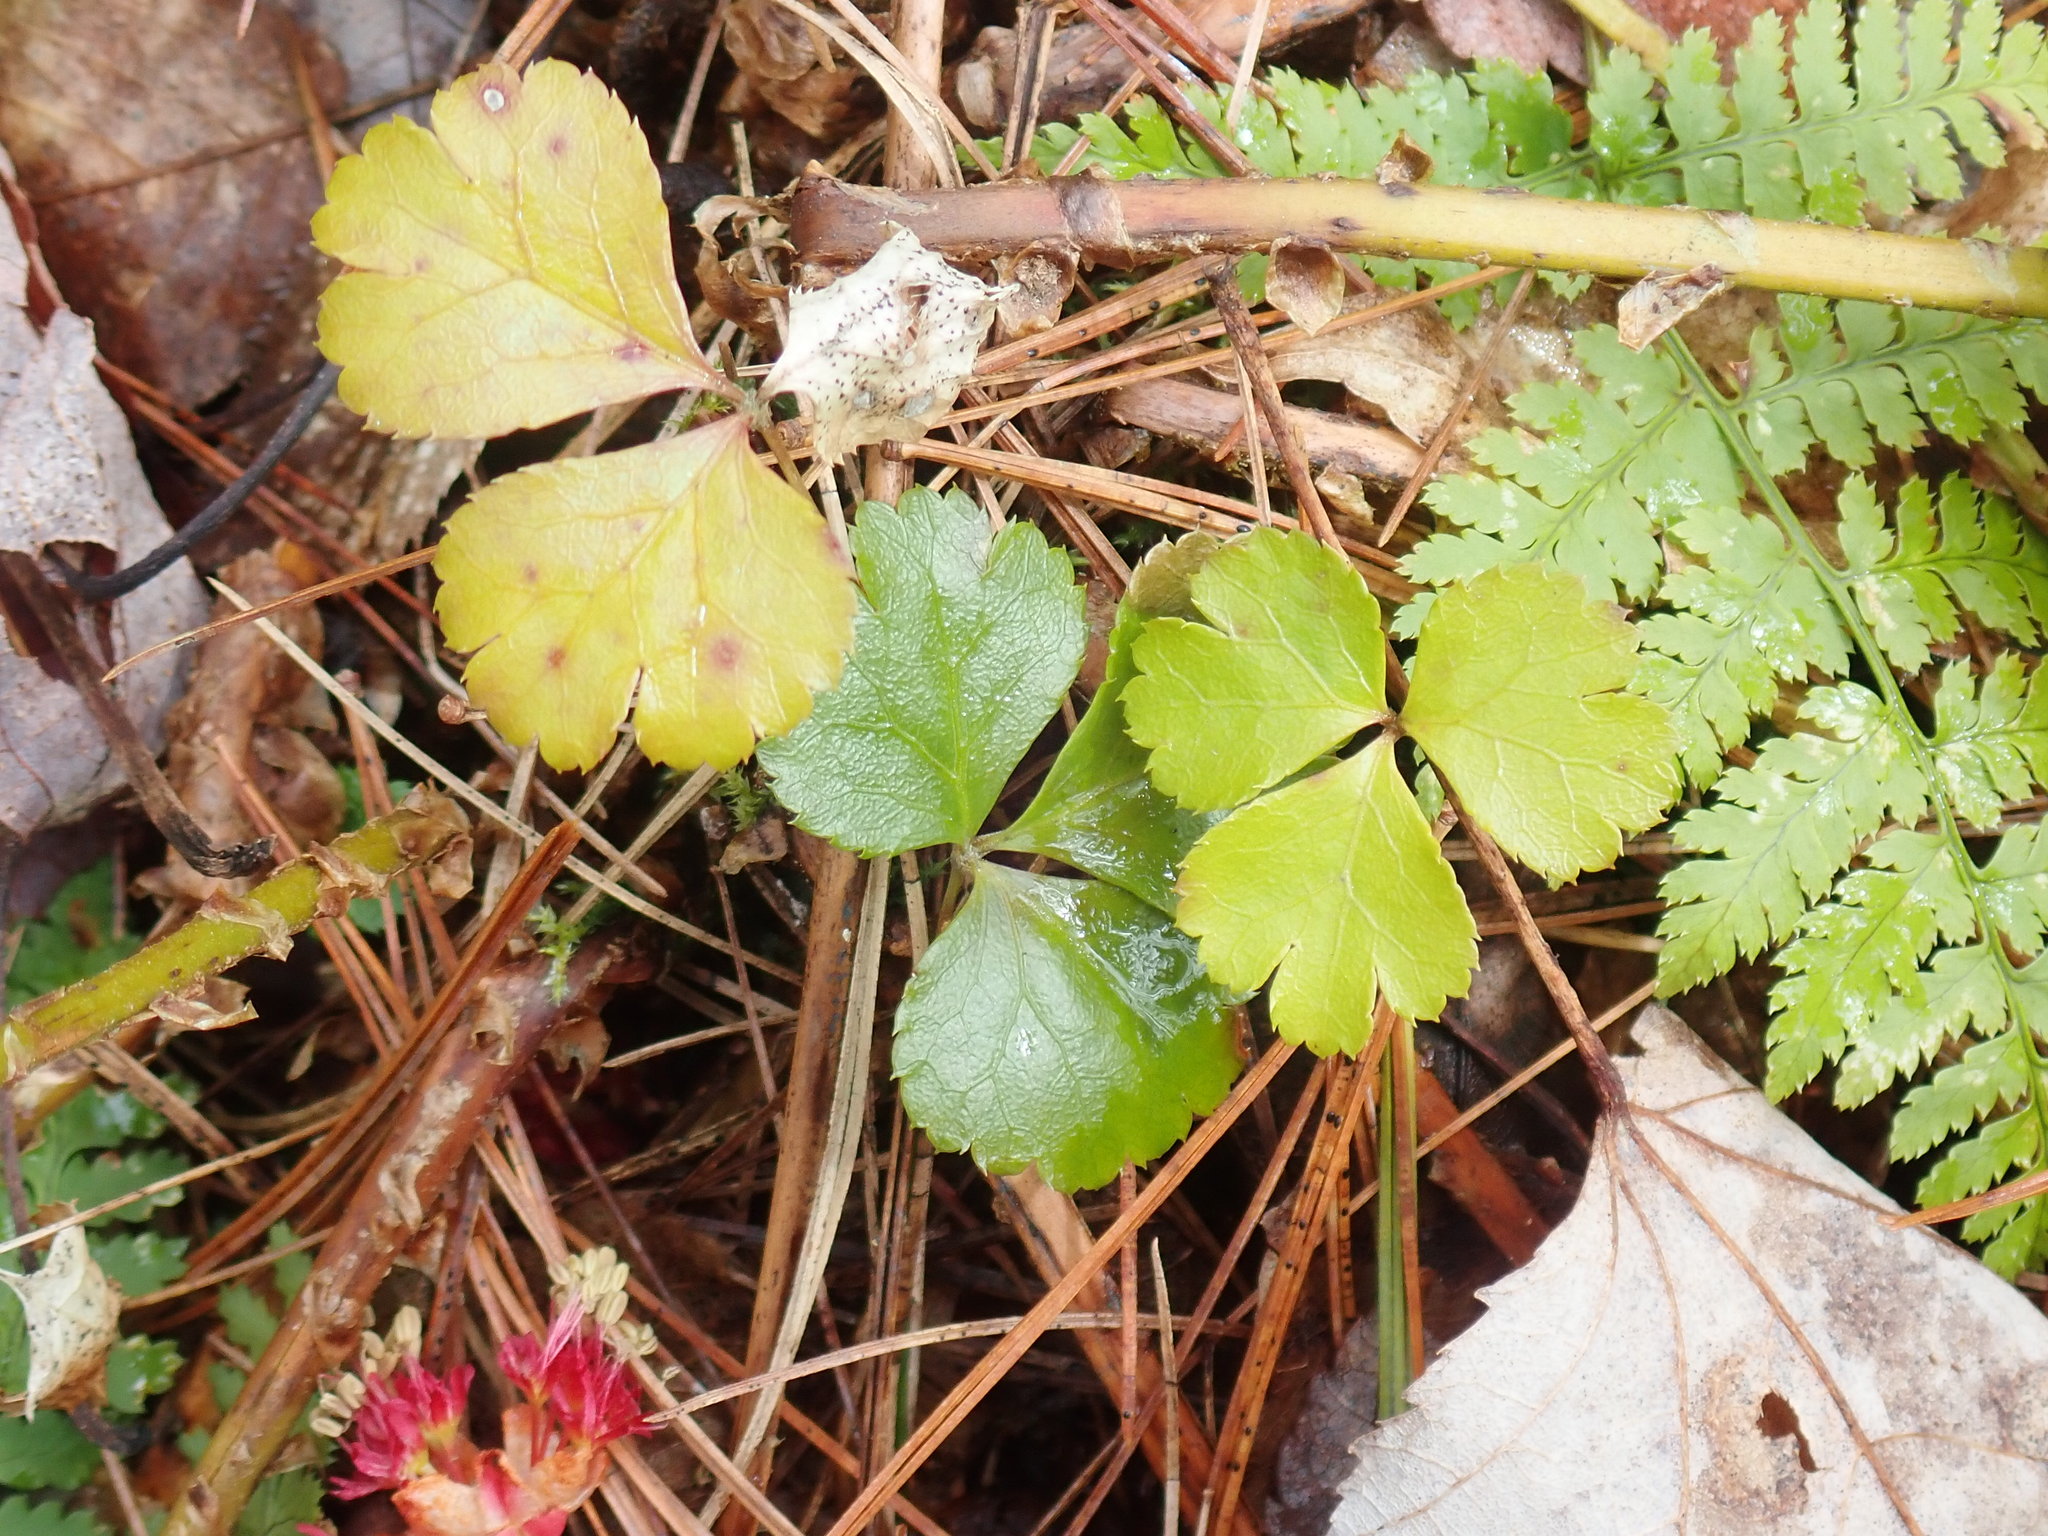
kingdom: Plantae
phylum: Tracheophyta
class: Magnoliopsida
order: Ranunculales
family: Ranunculaceae
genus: Coptis
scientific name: Coptis trifolia
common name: Canker-root
